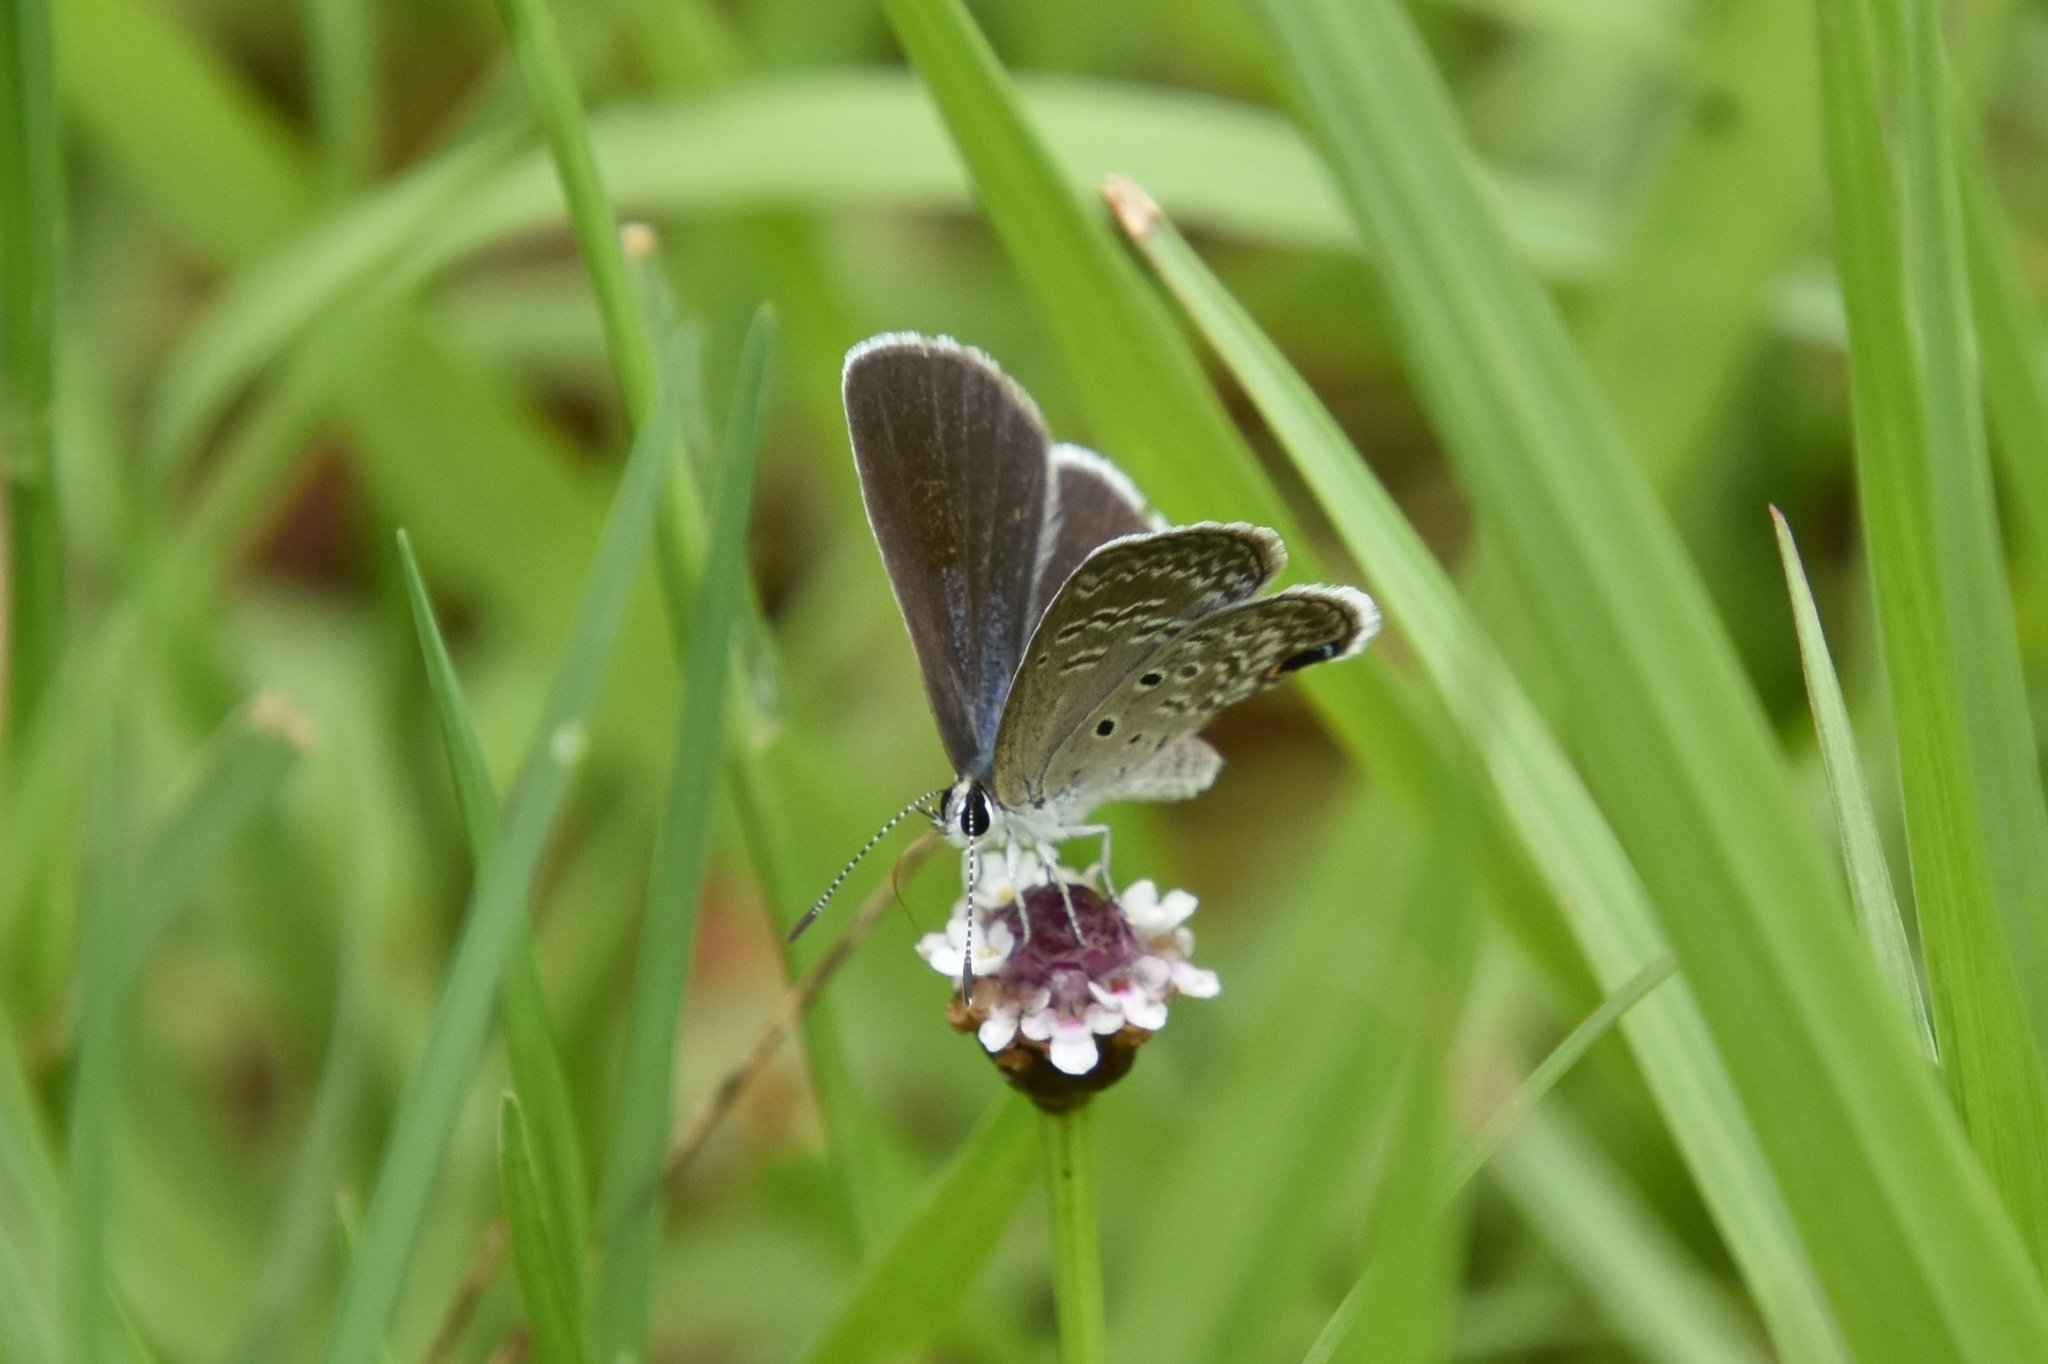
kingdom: Animalia
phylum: Arthropoda
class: Insecta
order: Lepidoptera
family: Lycaenidae
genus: Hemiargus
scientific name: Hemiargus ceraunus
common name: Ceraunus blue
